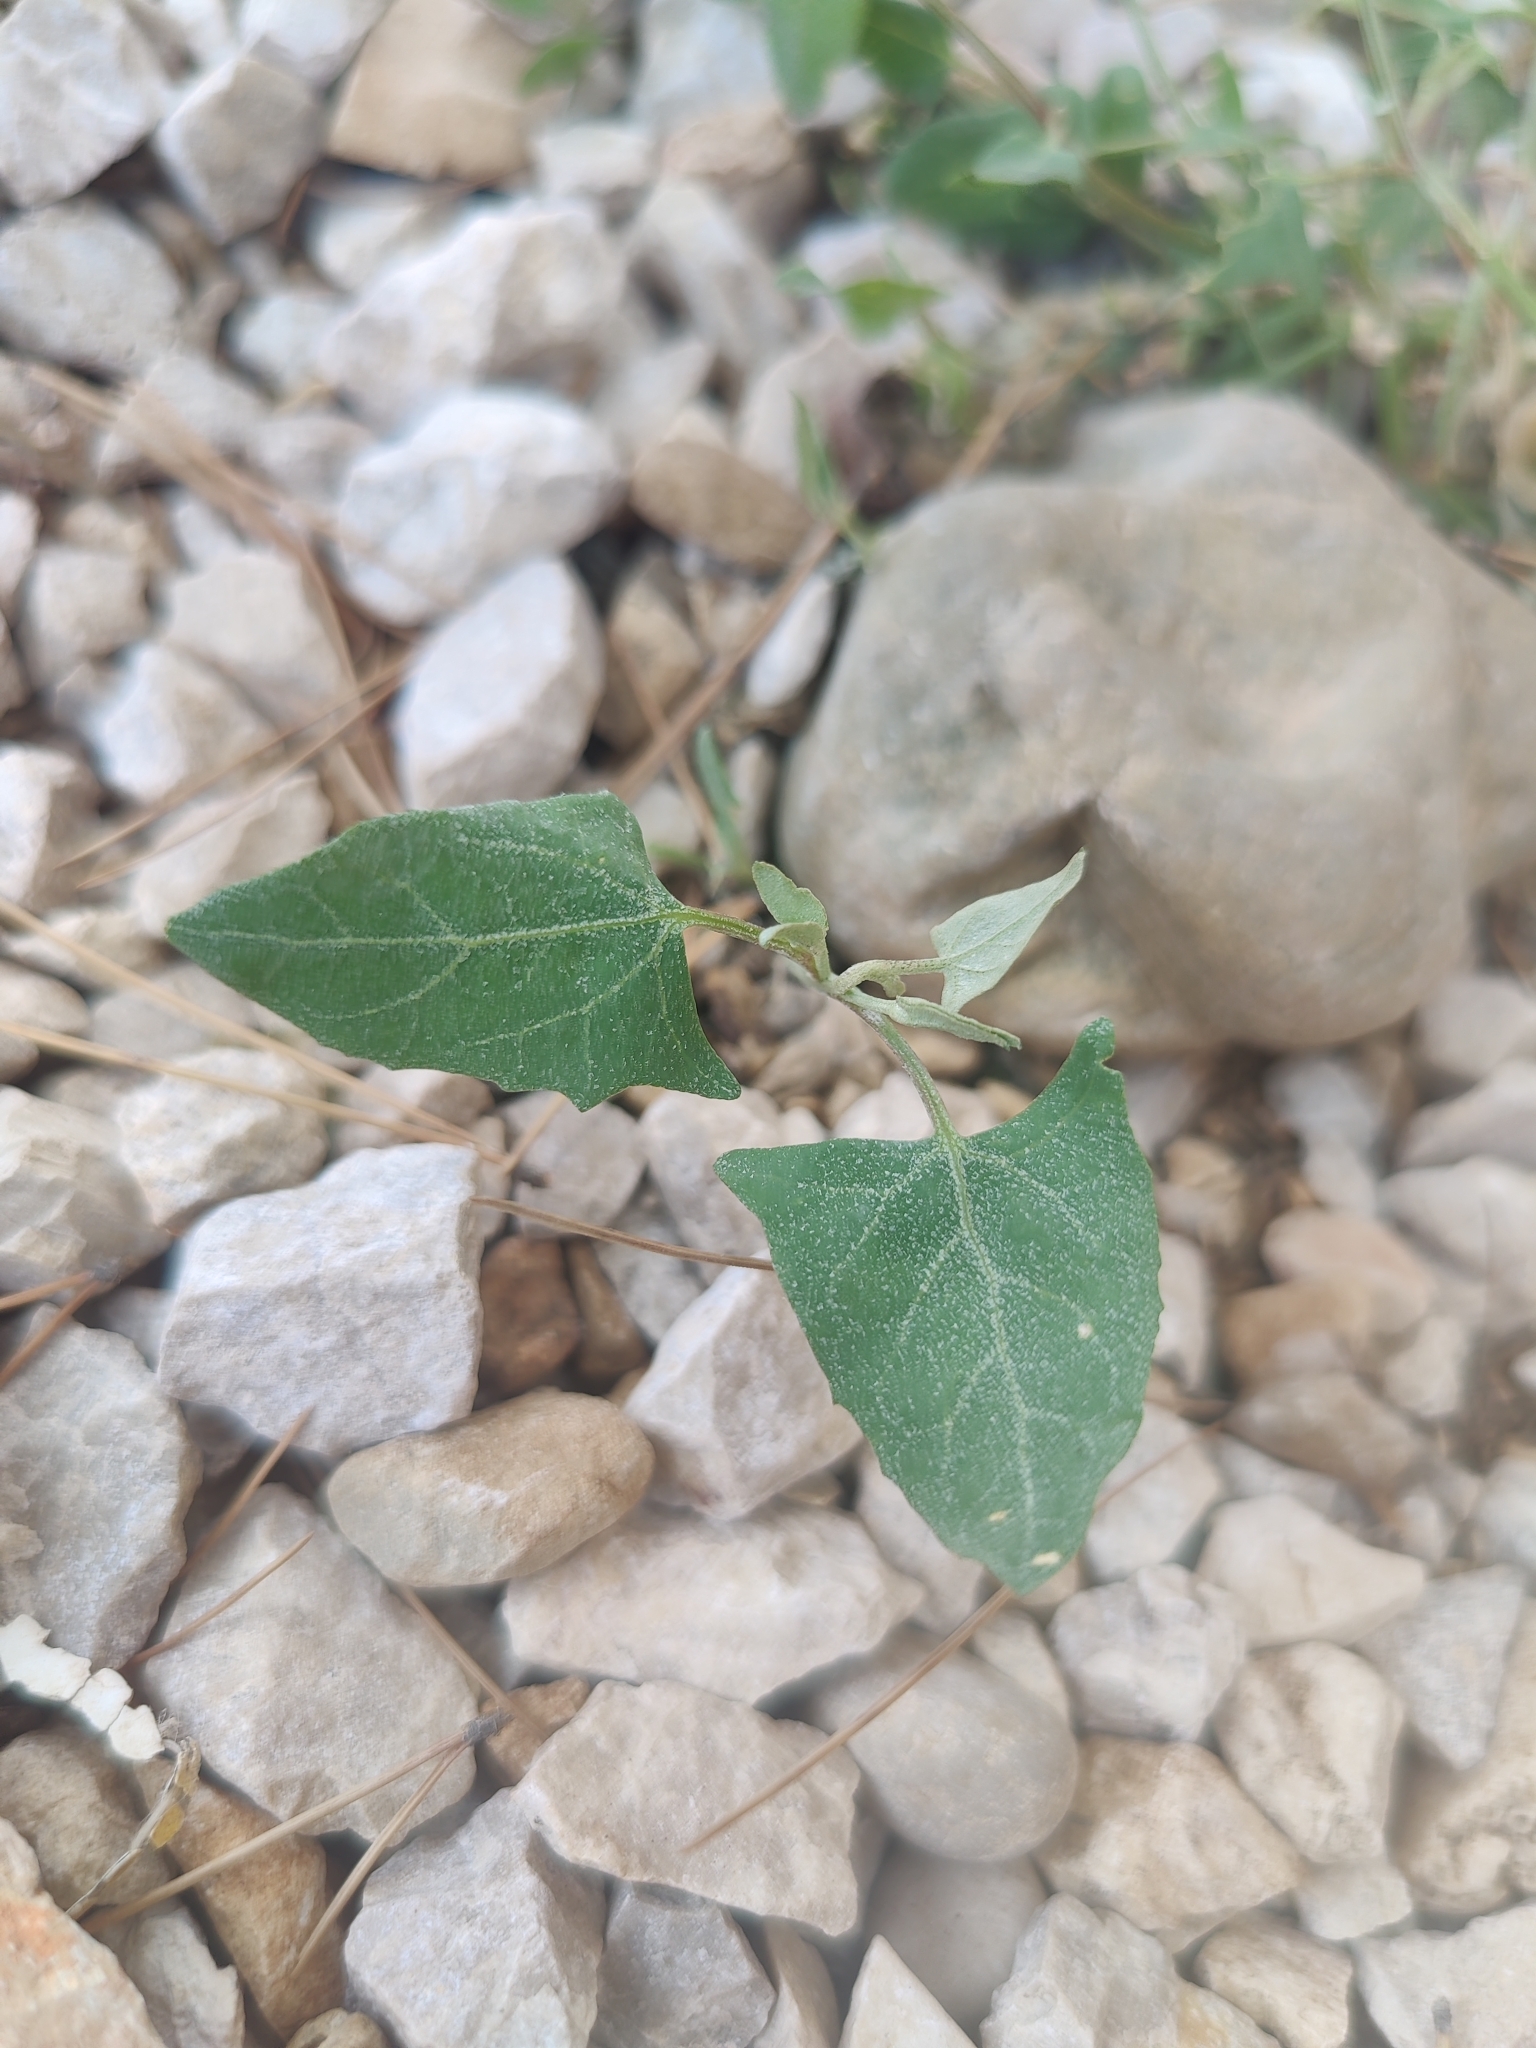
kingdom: Plantae
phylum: Tracheophyta
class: Magnoliopsida
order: Caryophyllales
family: Amaranthaceae
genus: Atriplex
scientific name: Atriplex prostrata
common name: Spear-leaved orache
